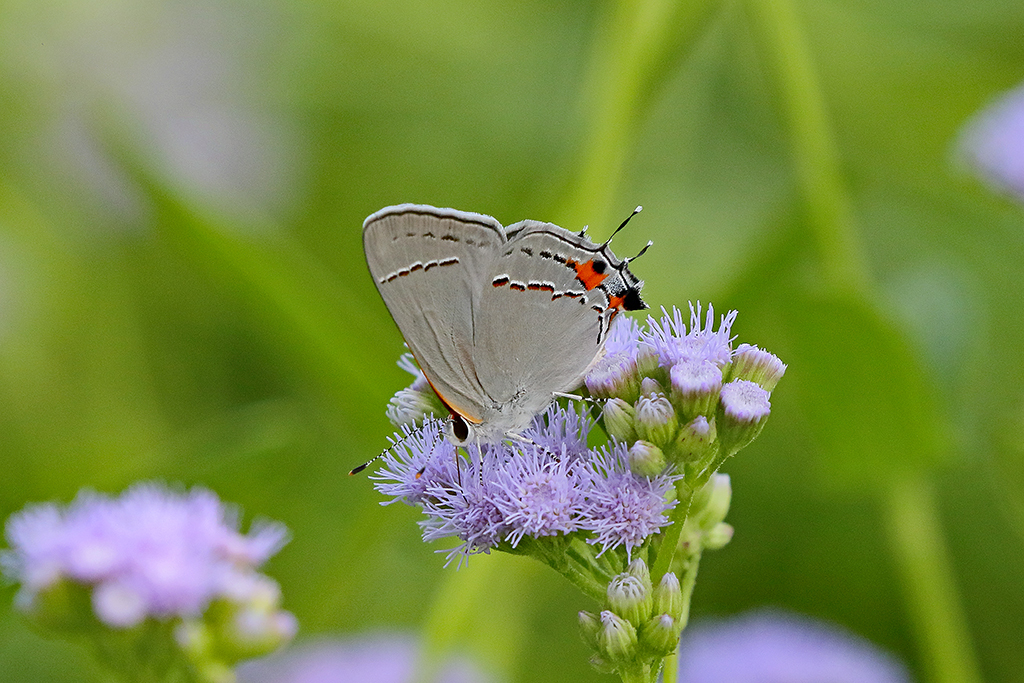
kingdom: Animalia
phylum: Arthropoda
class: Insecta
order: Lepidoptera
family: Lycaenidae
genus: Strymon
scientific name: Strymon melinus
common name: Gray hairstreak
